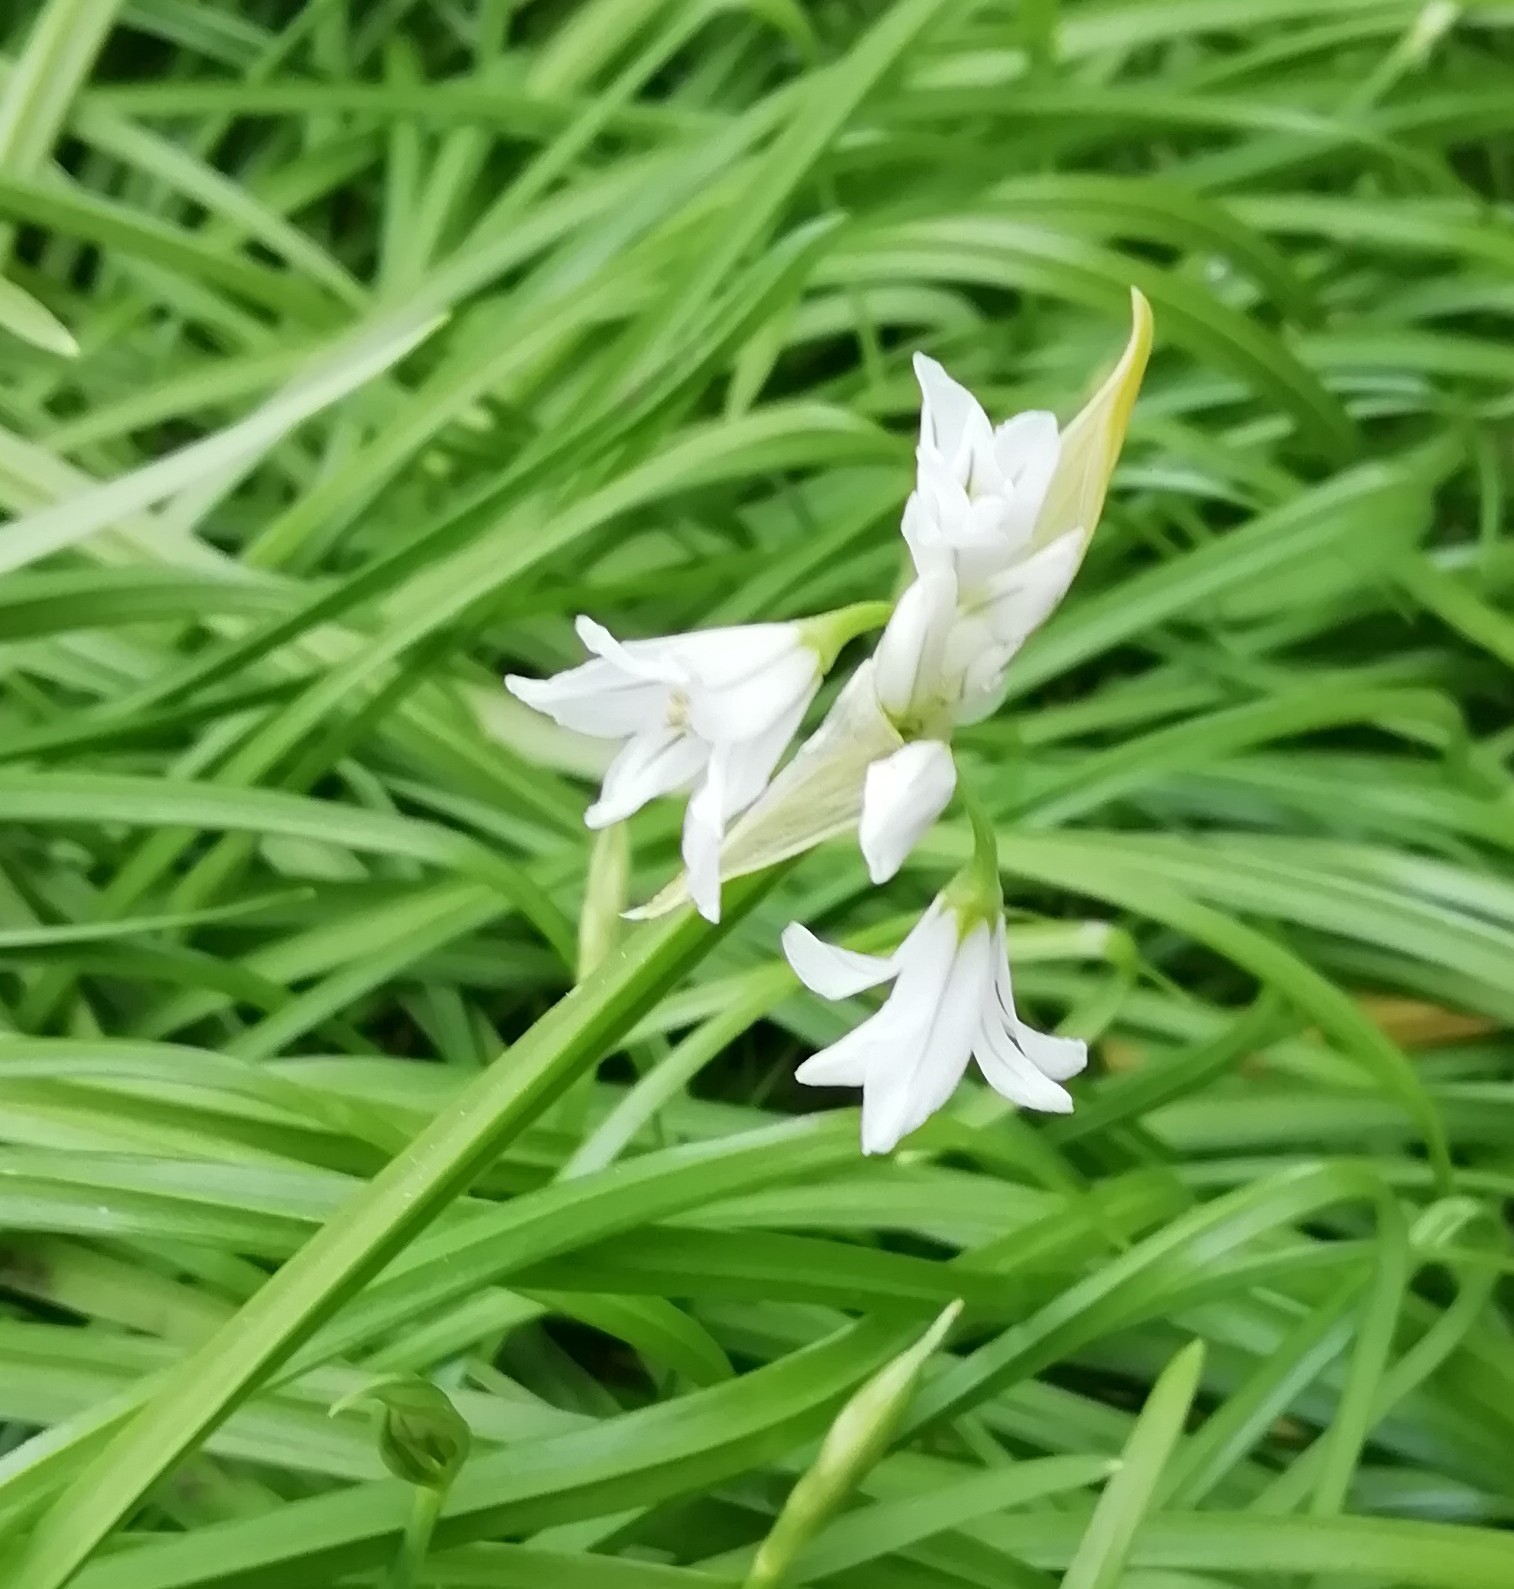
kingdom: Plantae
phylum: Tracheophyta
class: Liliopsida
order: Asparagales
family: Amaryllidaceae
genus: Allium
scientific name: Allium triquetrum
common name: Three-cornered garlic
